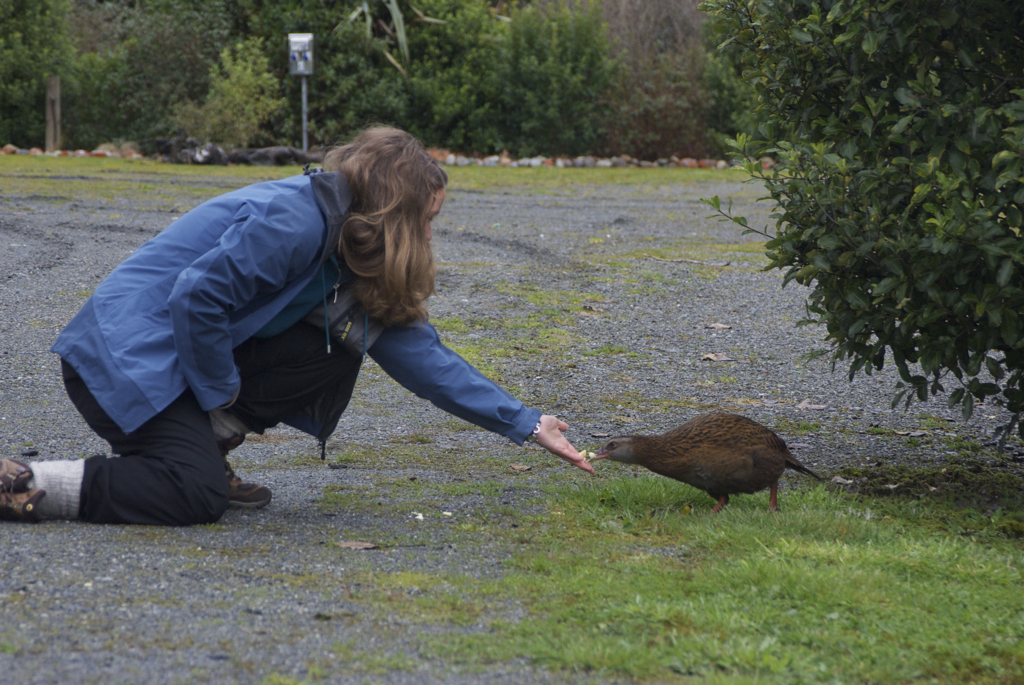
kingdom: Animalia
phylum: Chordata
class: Aves
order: Gruiformes
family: Rallidae
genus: Gallirallus
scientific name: Gallirallus australis
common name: Weka
